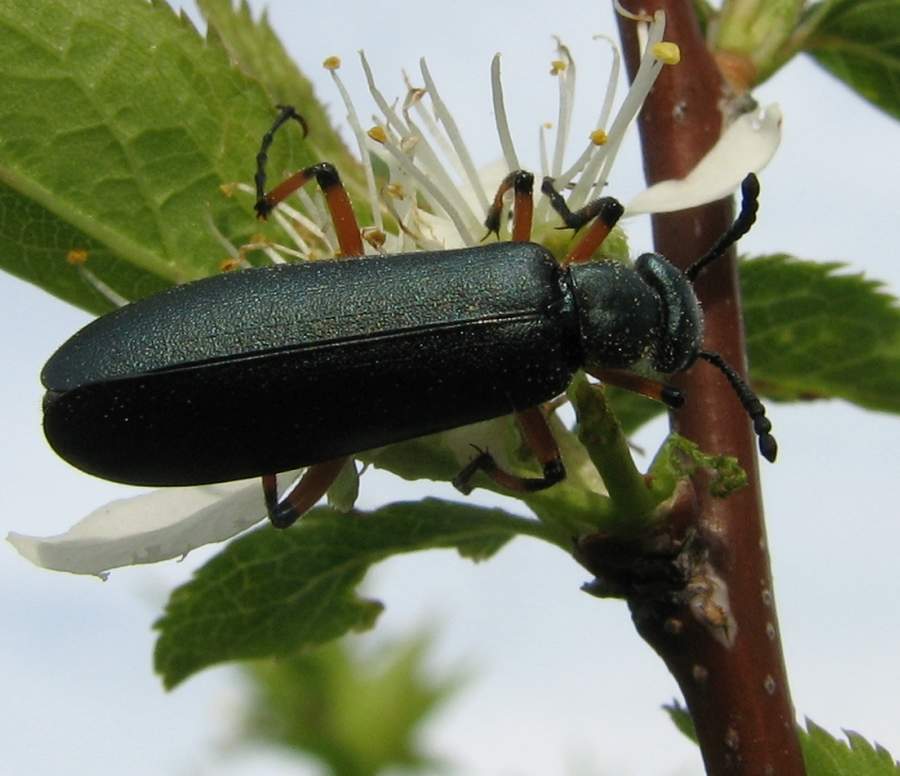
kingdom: Animalia
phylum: Arthropoda
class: Insecta
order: Coleoptera
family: Meloidae
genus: Lytta
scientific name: Lytta sayi
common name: Say's blister beetle
